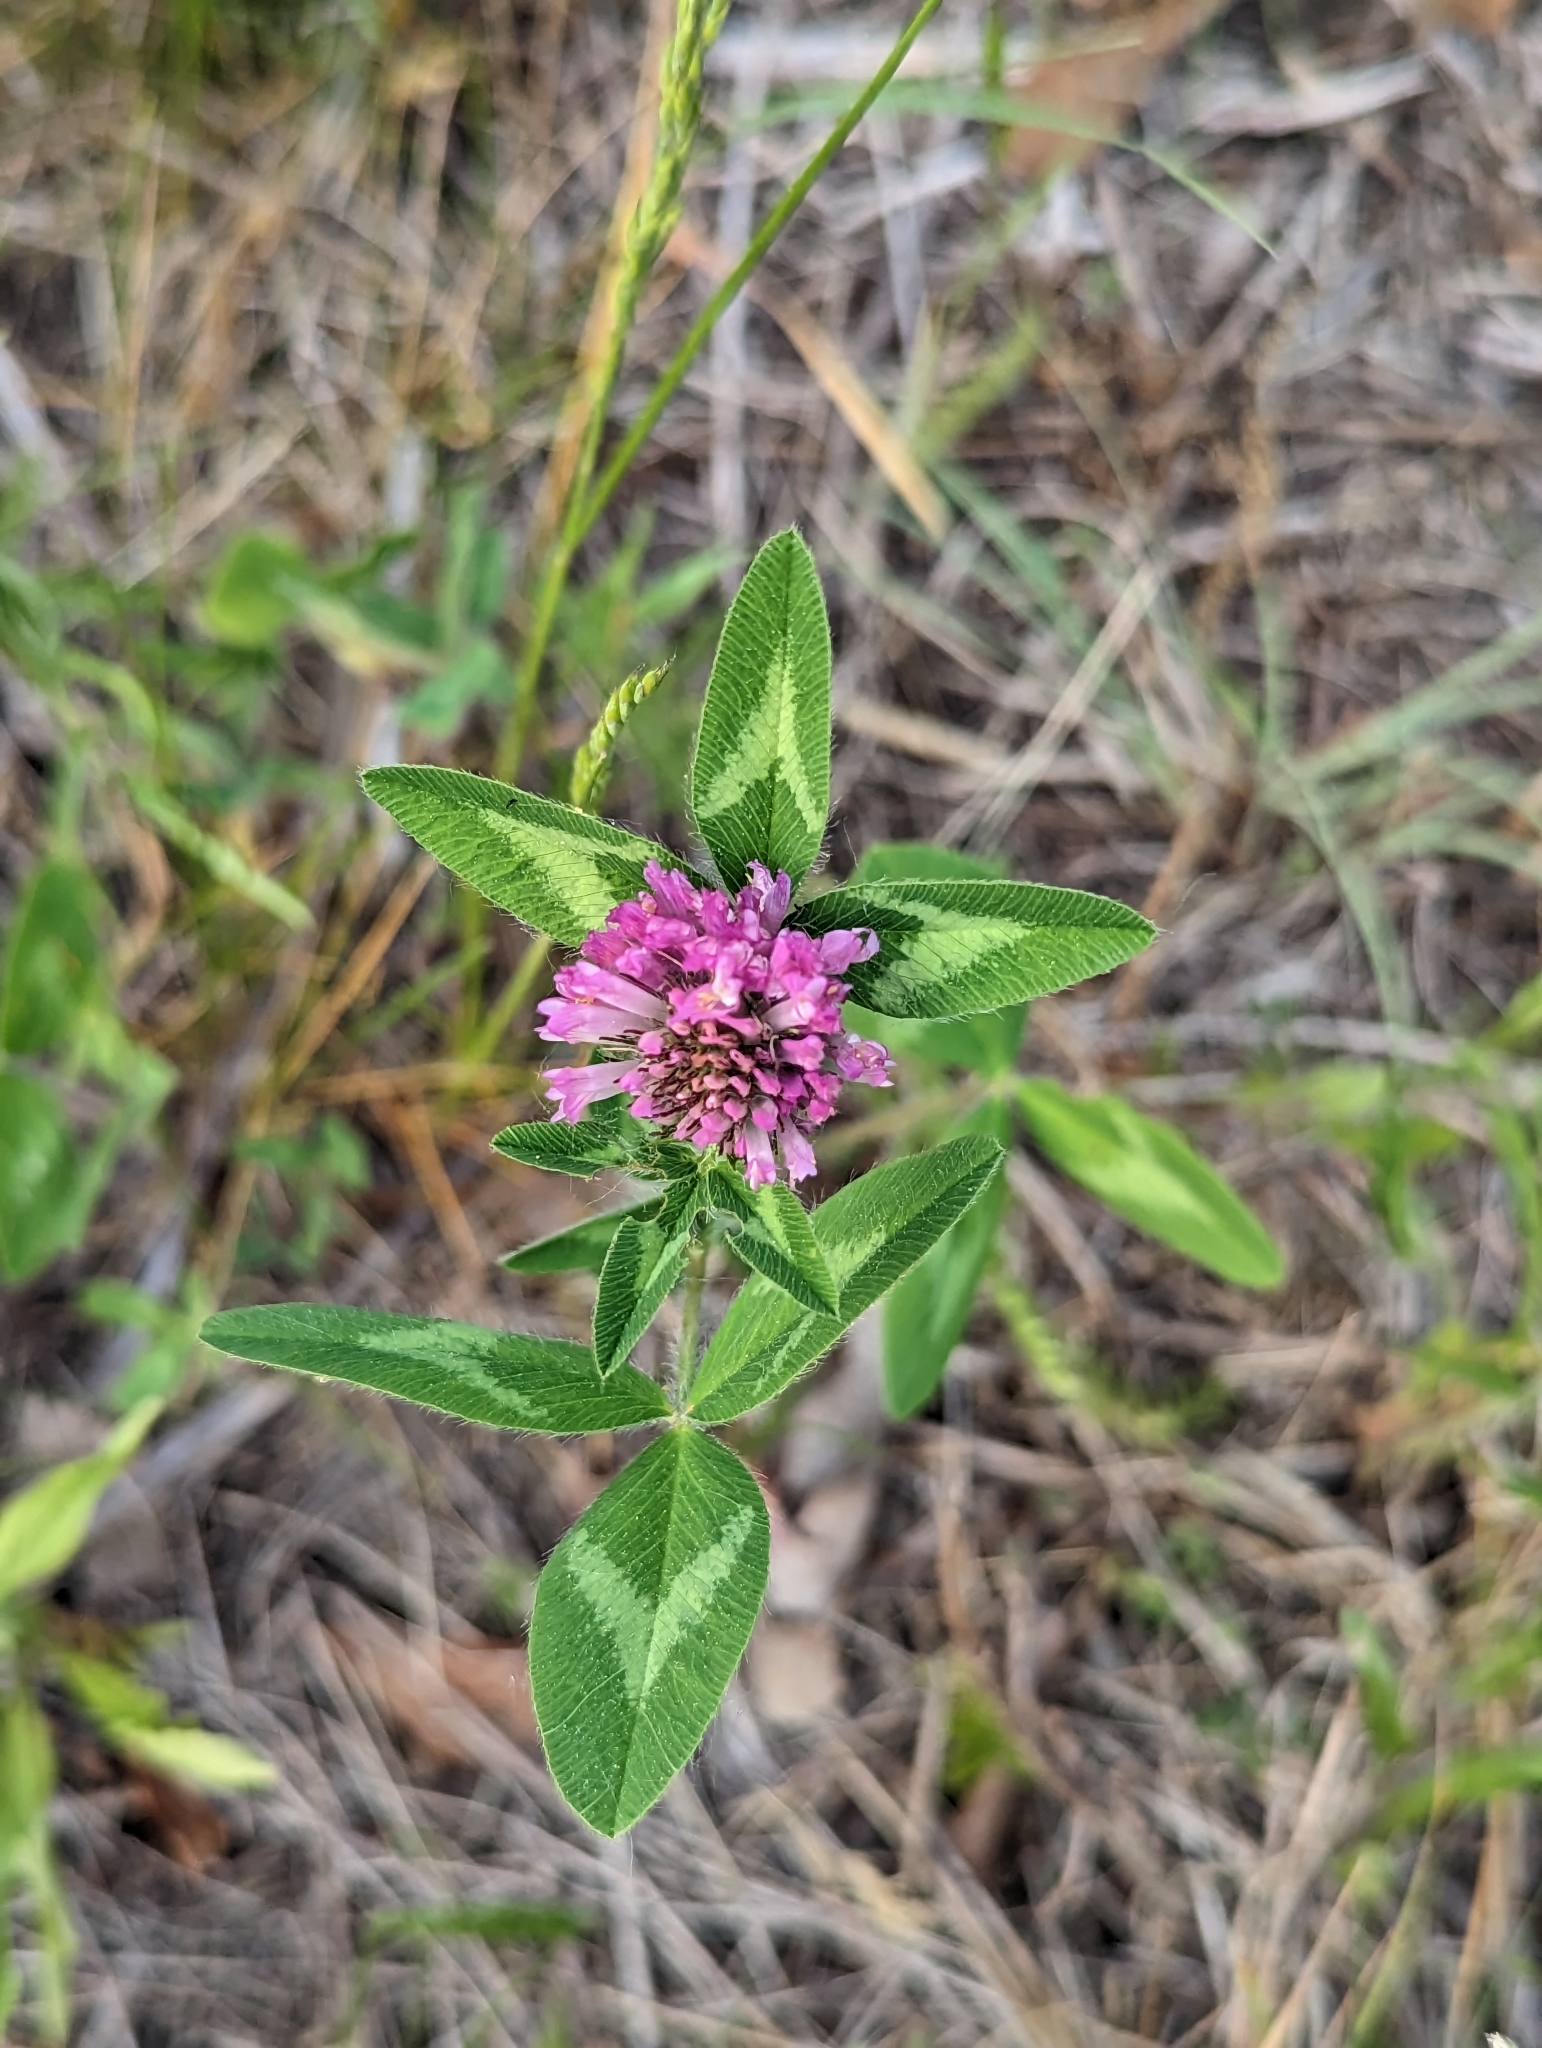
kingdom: Plantae
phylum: Tracheophyta
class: Magnoliopsida
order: Fabales
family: Fabaceae
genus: Trifolium
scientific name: Trifolium pratense
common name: Red clover
